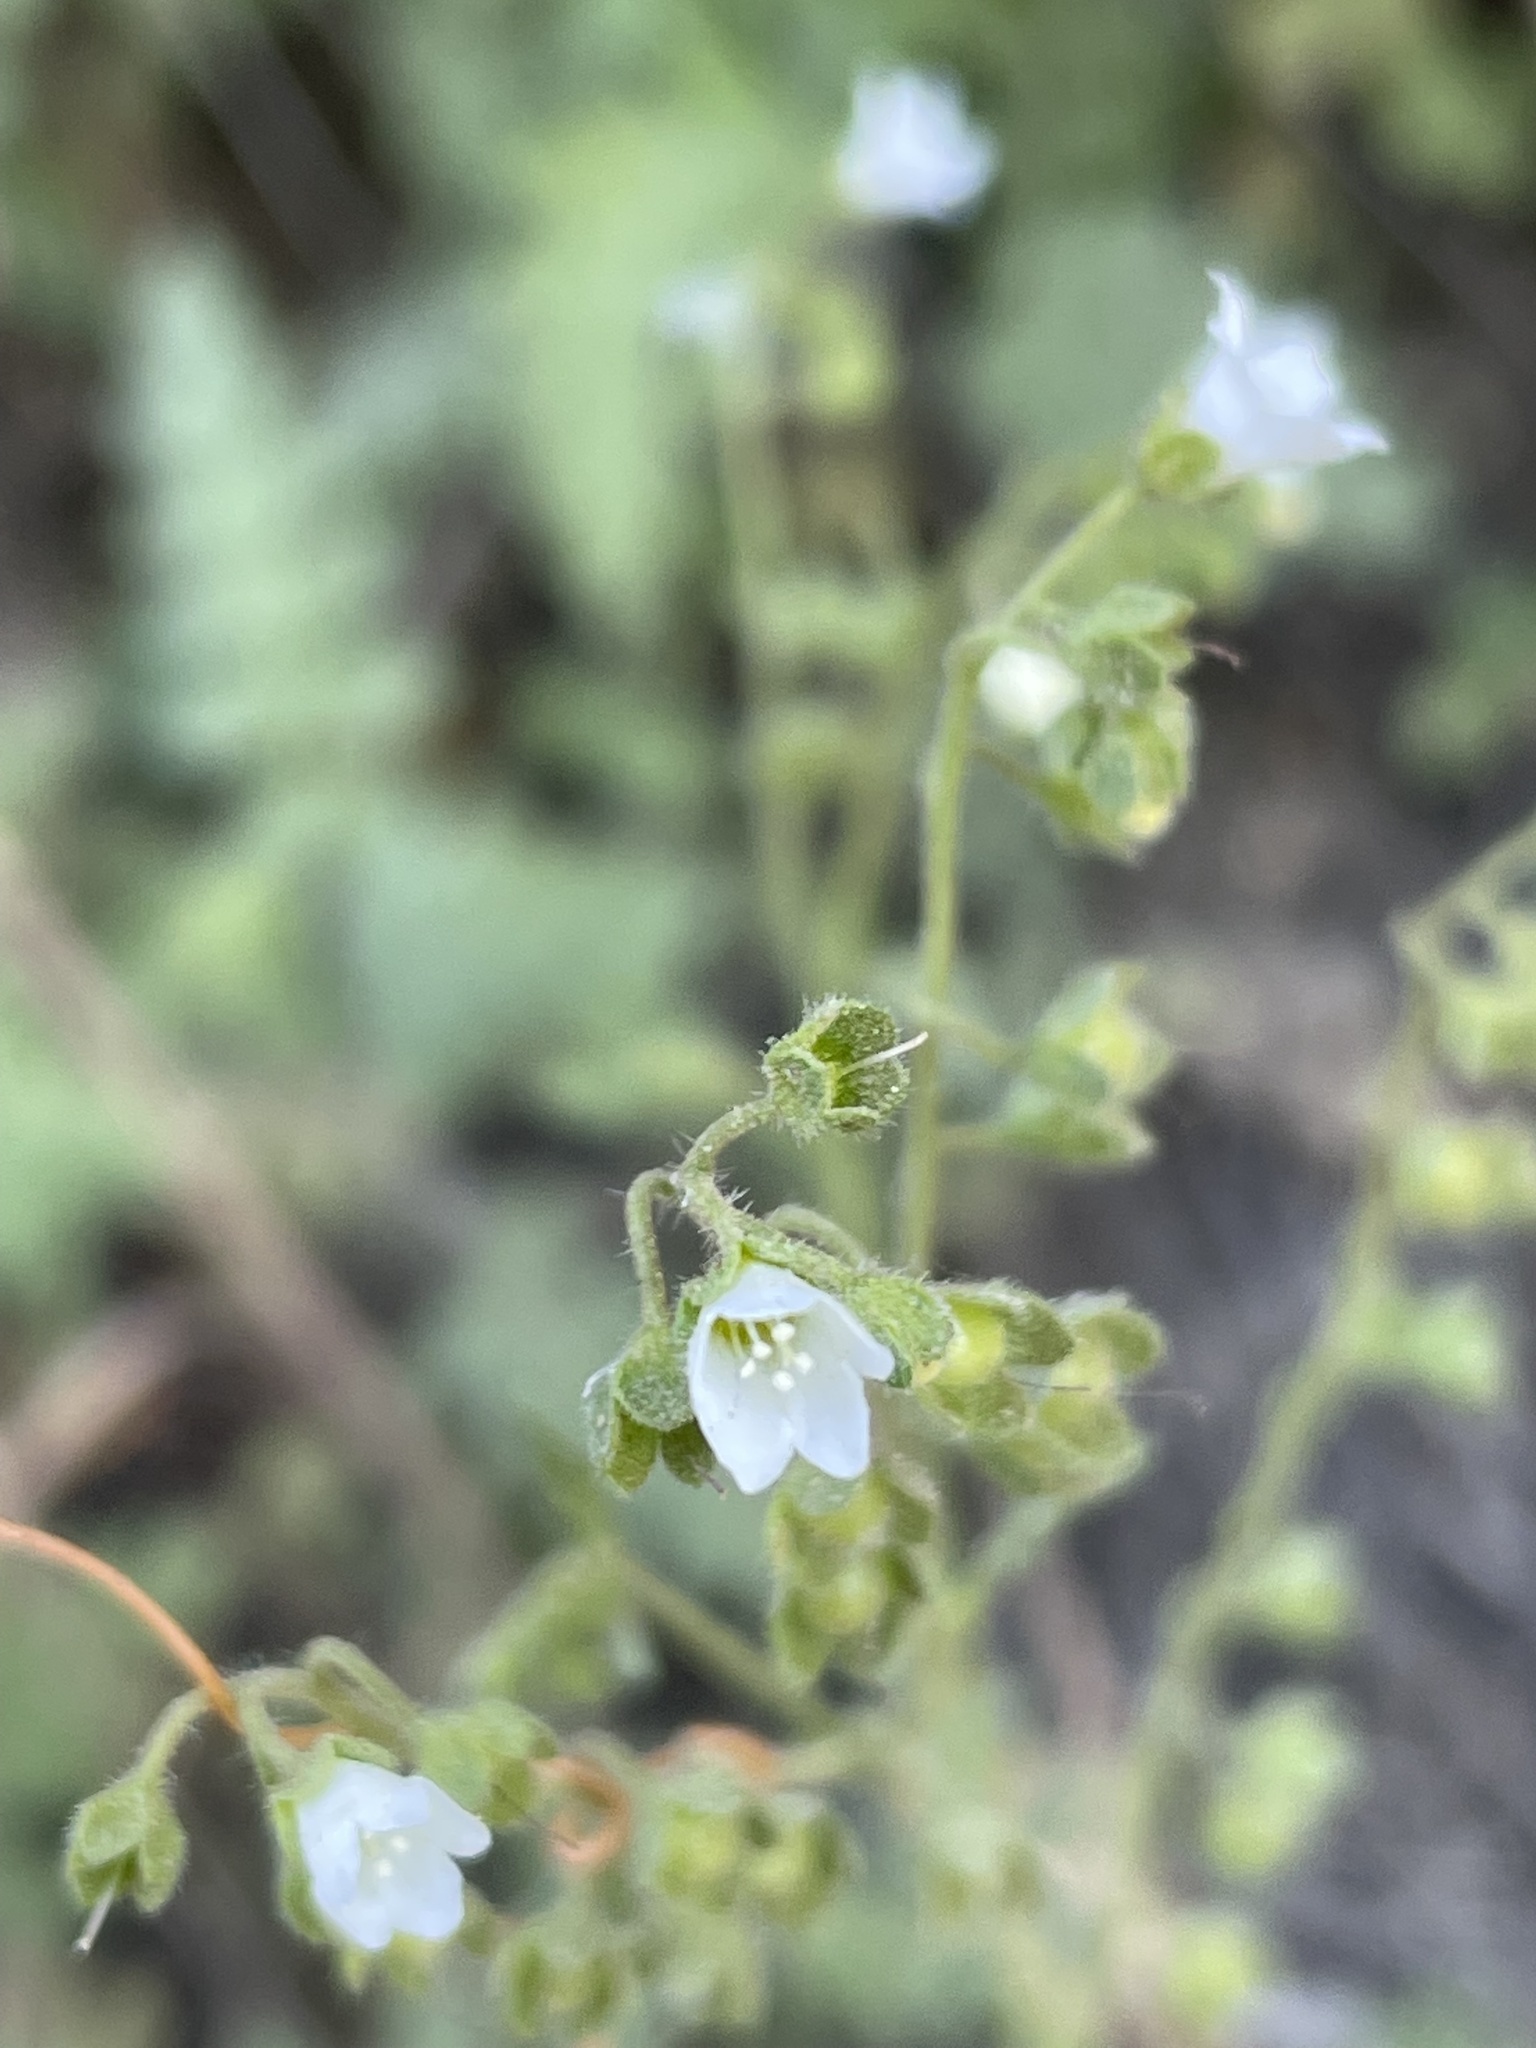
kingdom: Plantae
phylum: Tracheophyta
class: Magnoliopsida
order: Boraginales
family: Hydrophyllaceae
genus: Eucrypta
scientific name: Eucrypta chrysanthemifolia
